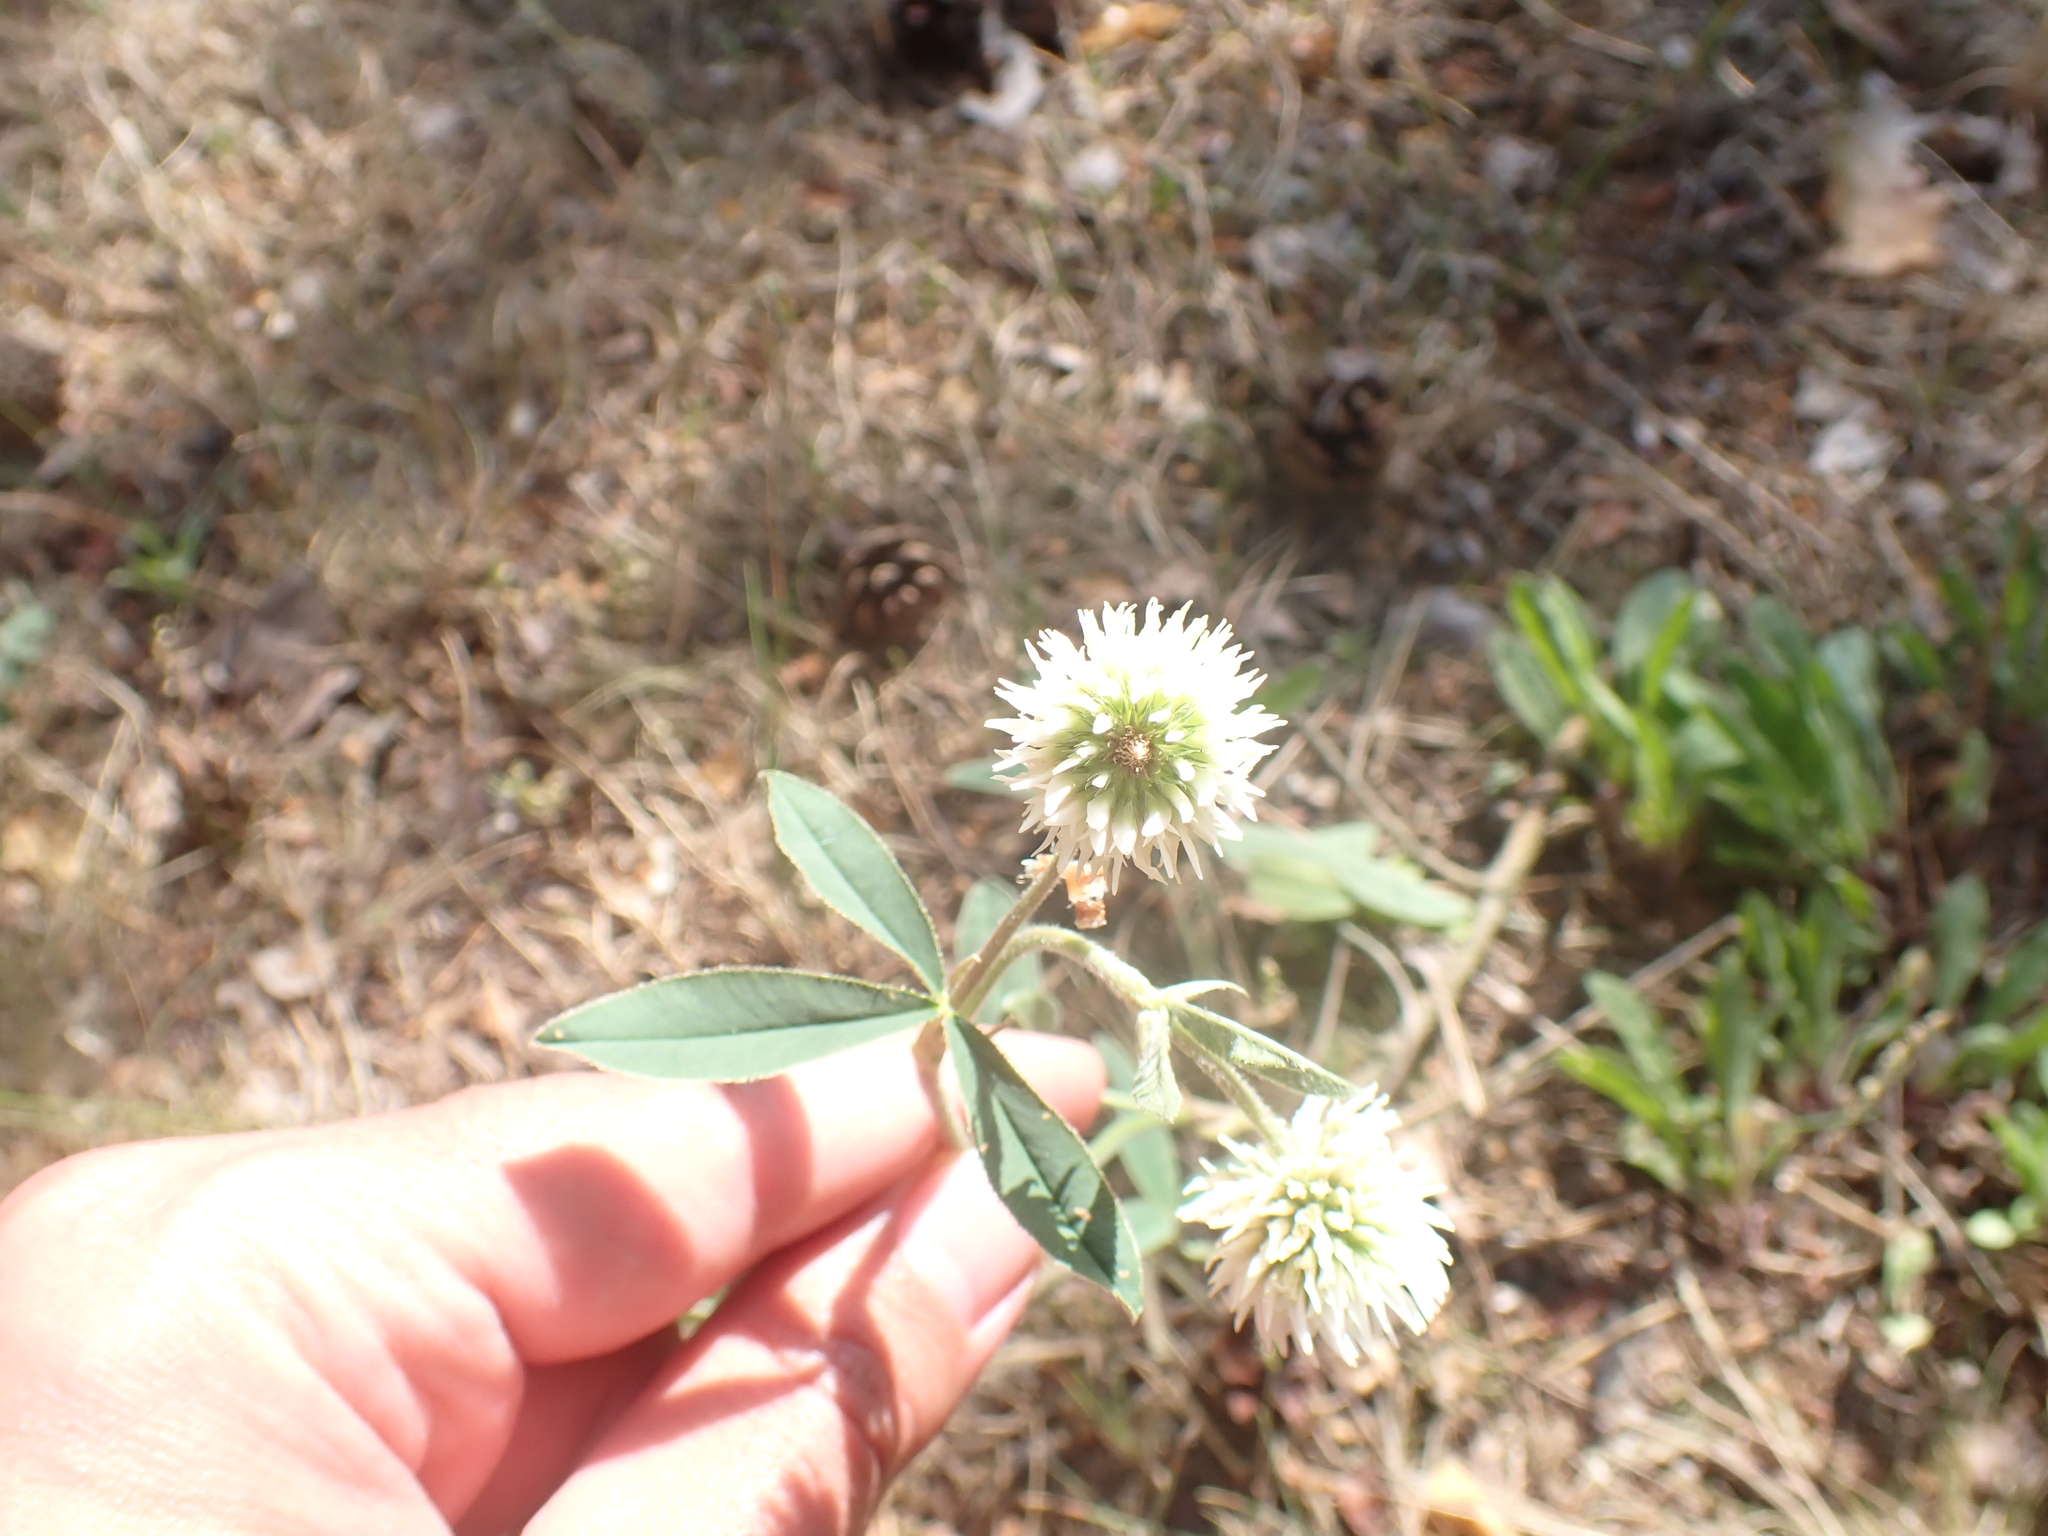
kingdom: Plantae
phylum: Tracheophyta
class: Magnoliopsida
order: Fabales
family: Fabaceae
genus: Trifolium
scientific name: Trifolium montanum
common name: Mountain clover
